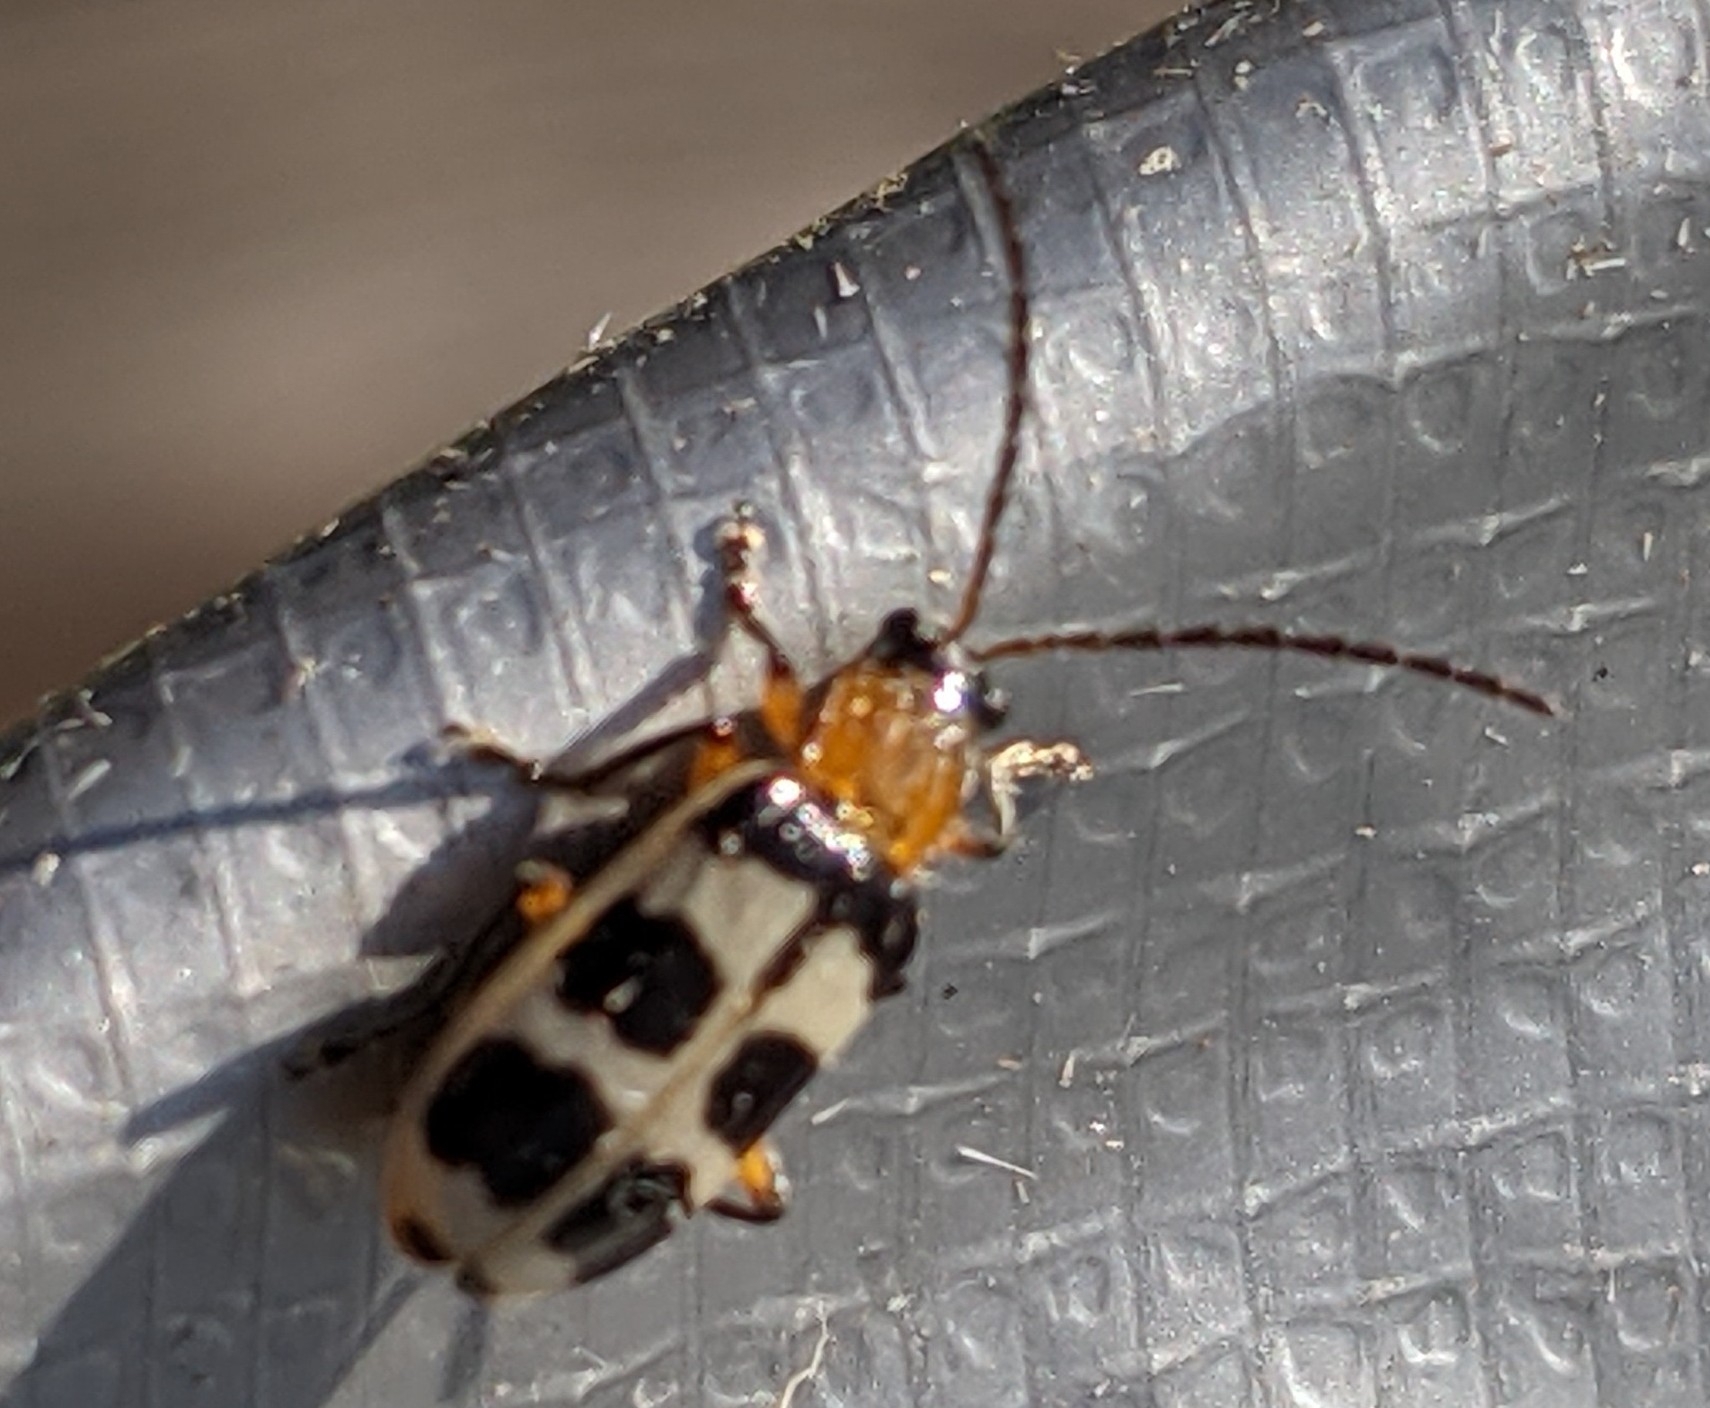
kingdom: Animalia
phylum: Arthropoda
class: Insecta
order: Coleoptera
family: Chrysomelidae
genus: Paranapiacaba
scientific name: Paranapiacaba tricincta
